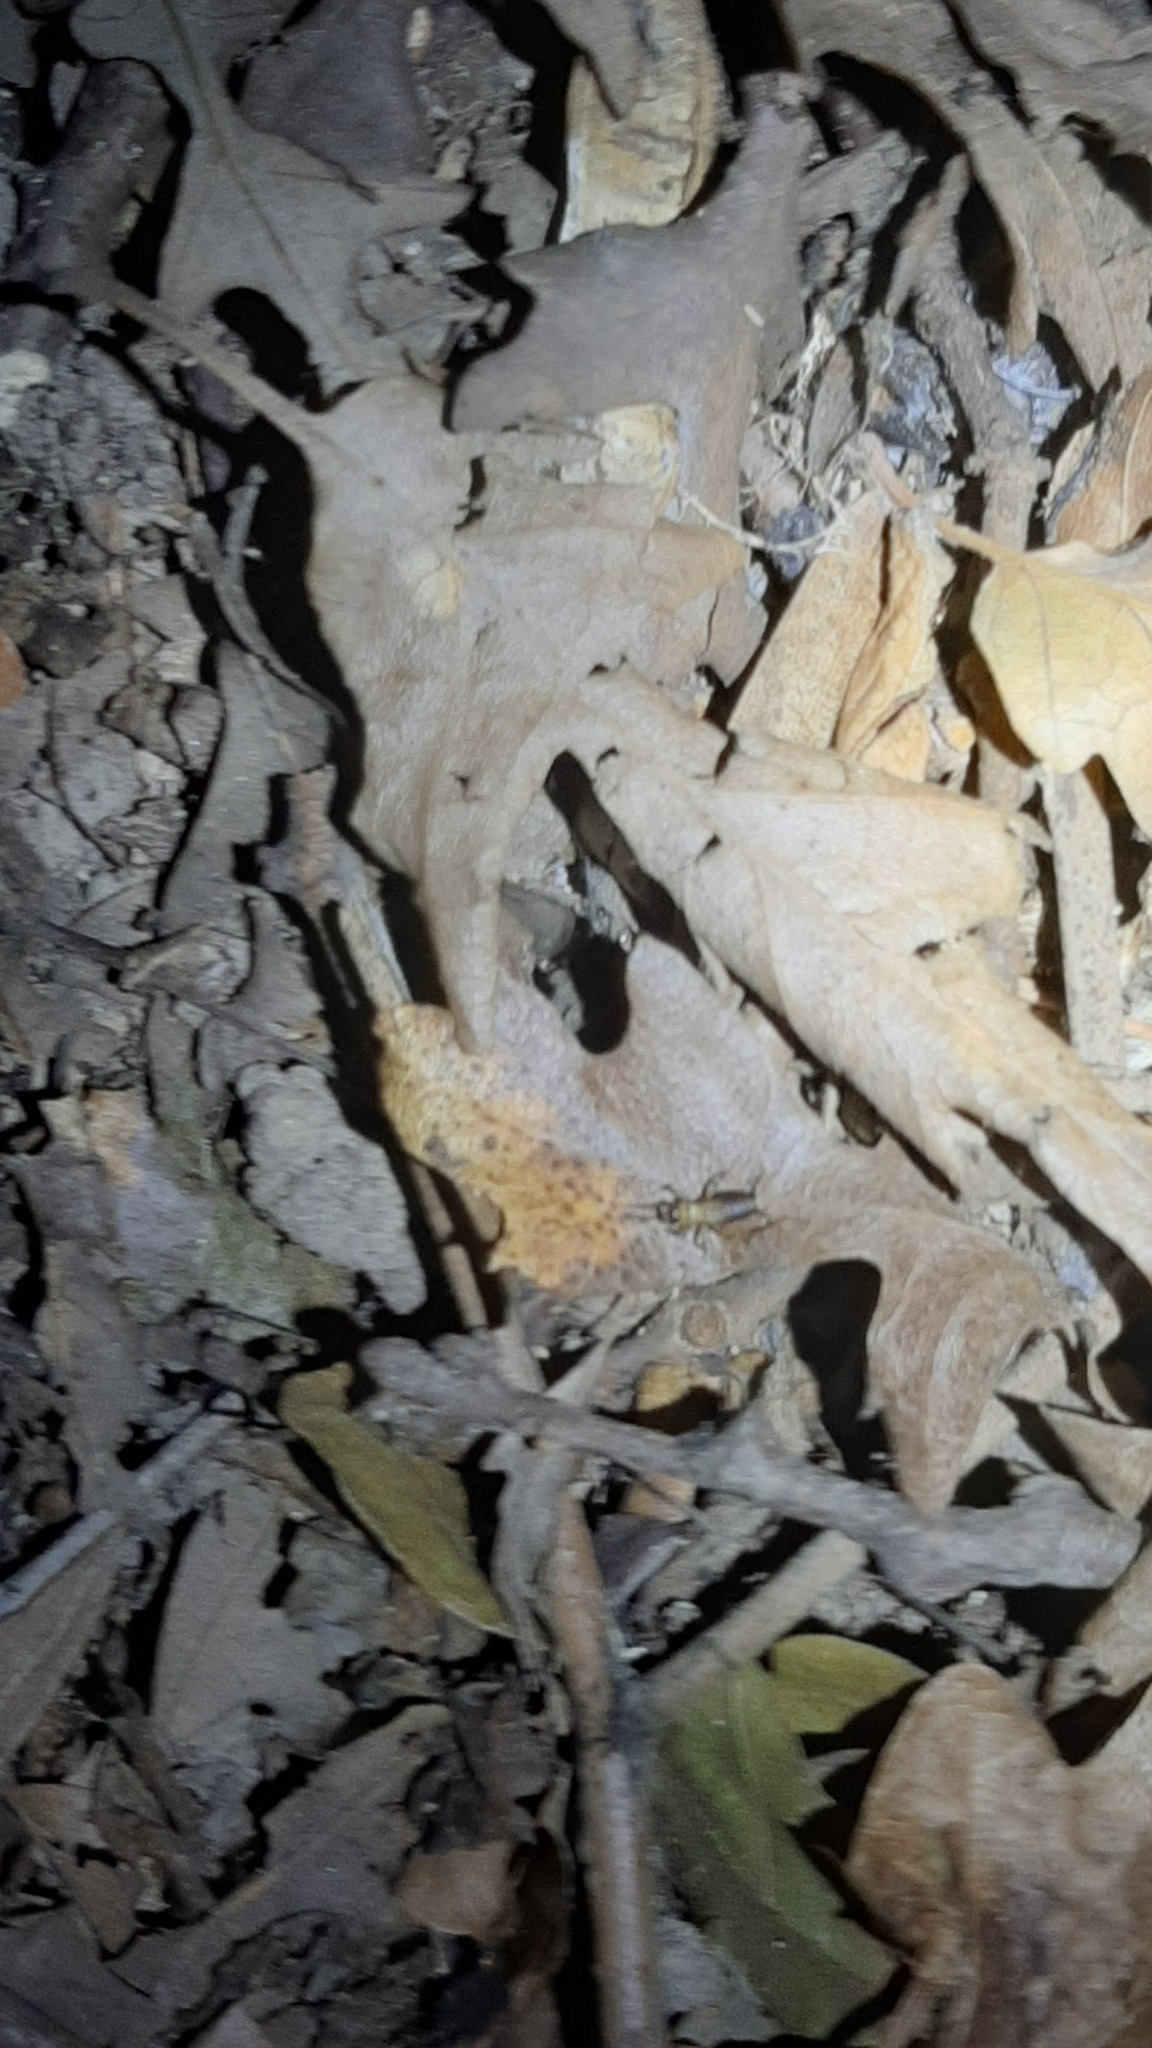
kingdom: Animalia
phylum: Arthropoda
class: Insecta
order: Orthoptera
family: Trigonidiidae
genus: Nemobius
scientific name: Nemobius sylvestris
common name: Wood-cricket
